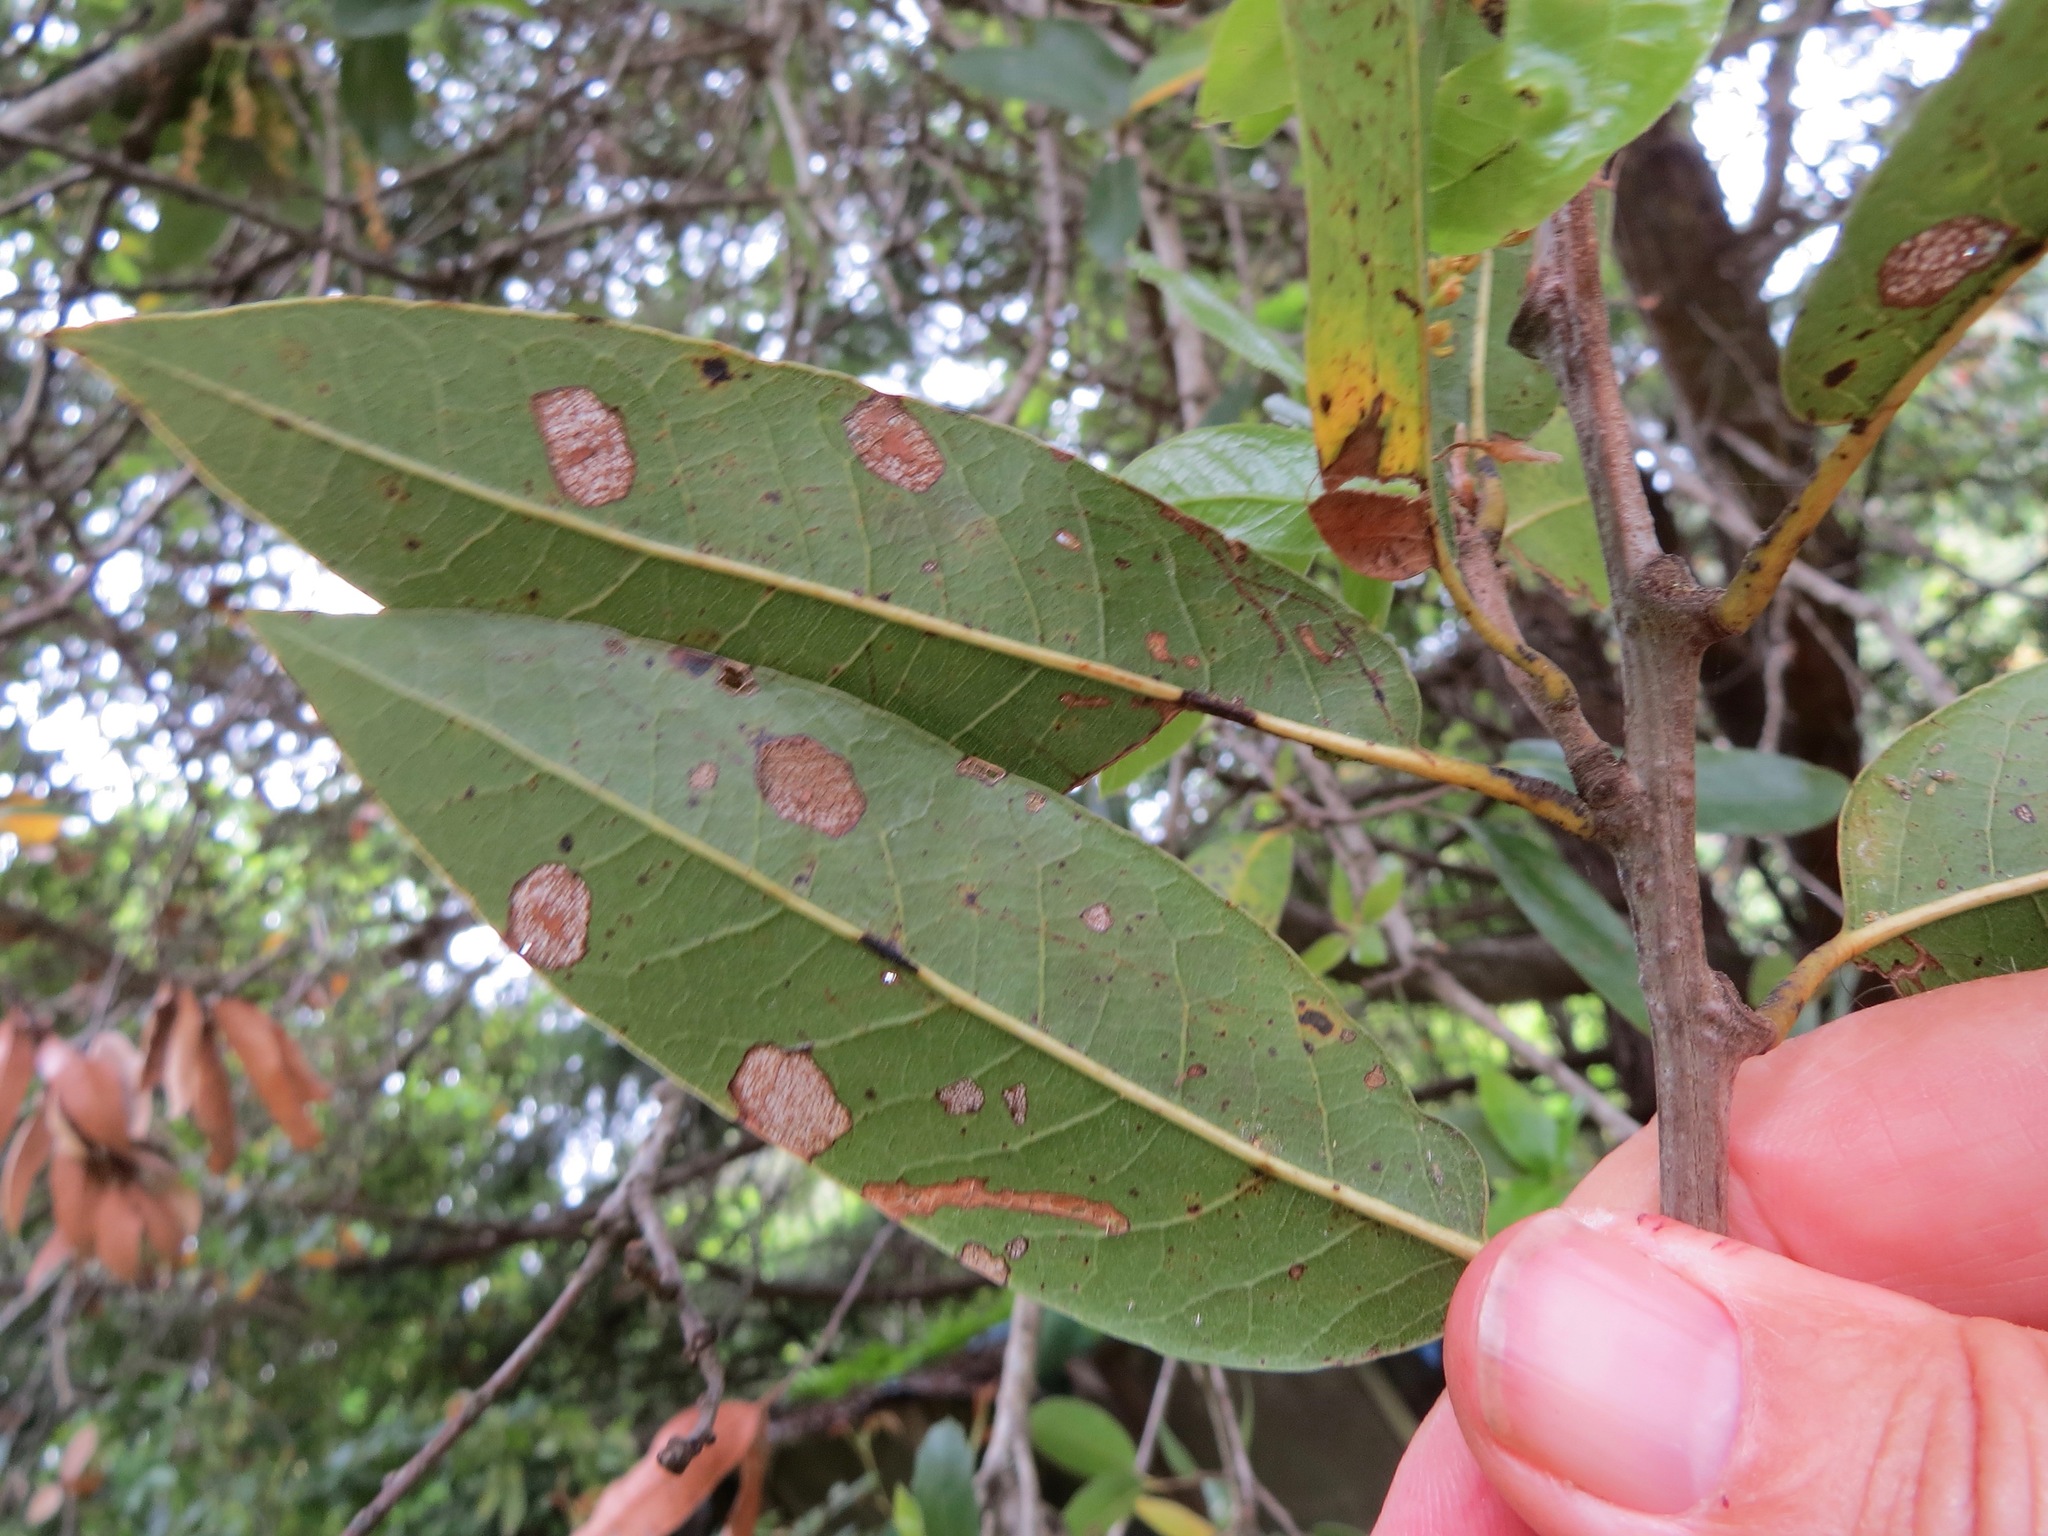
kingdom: Animalia
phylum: Arthropoda
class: Insecta
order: Lepidoptera
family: Incurvariidae
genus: Vespina
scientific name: Vespina quercivora
